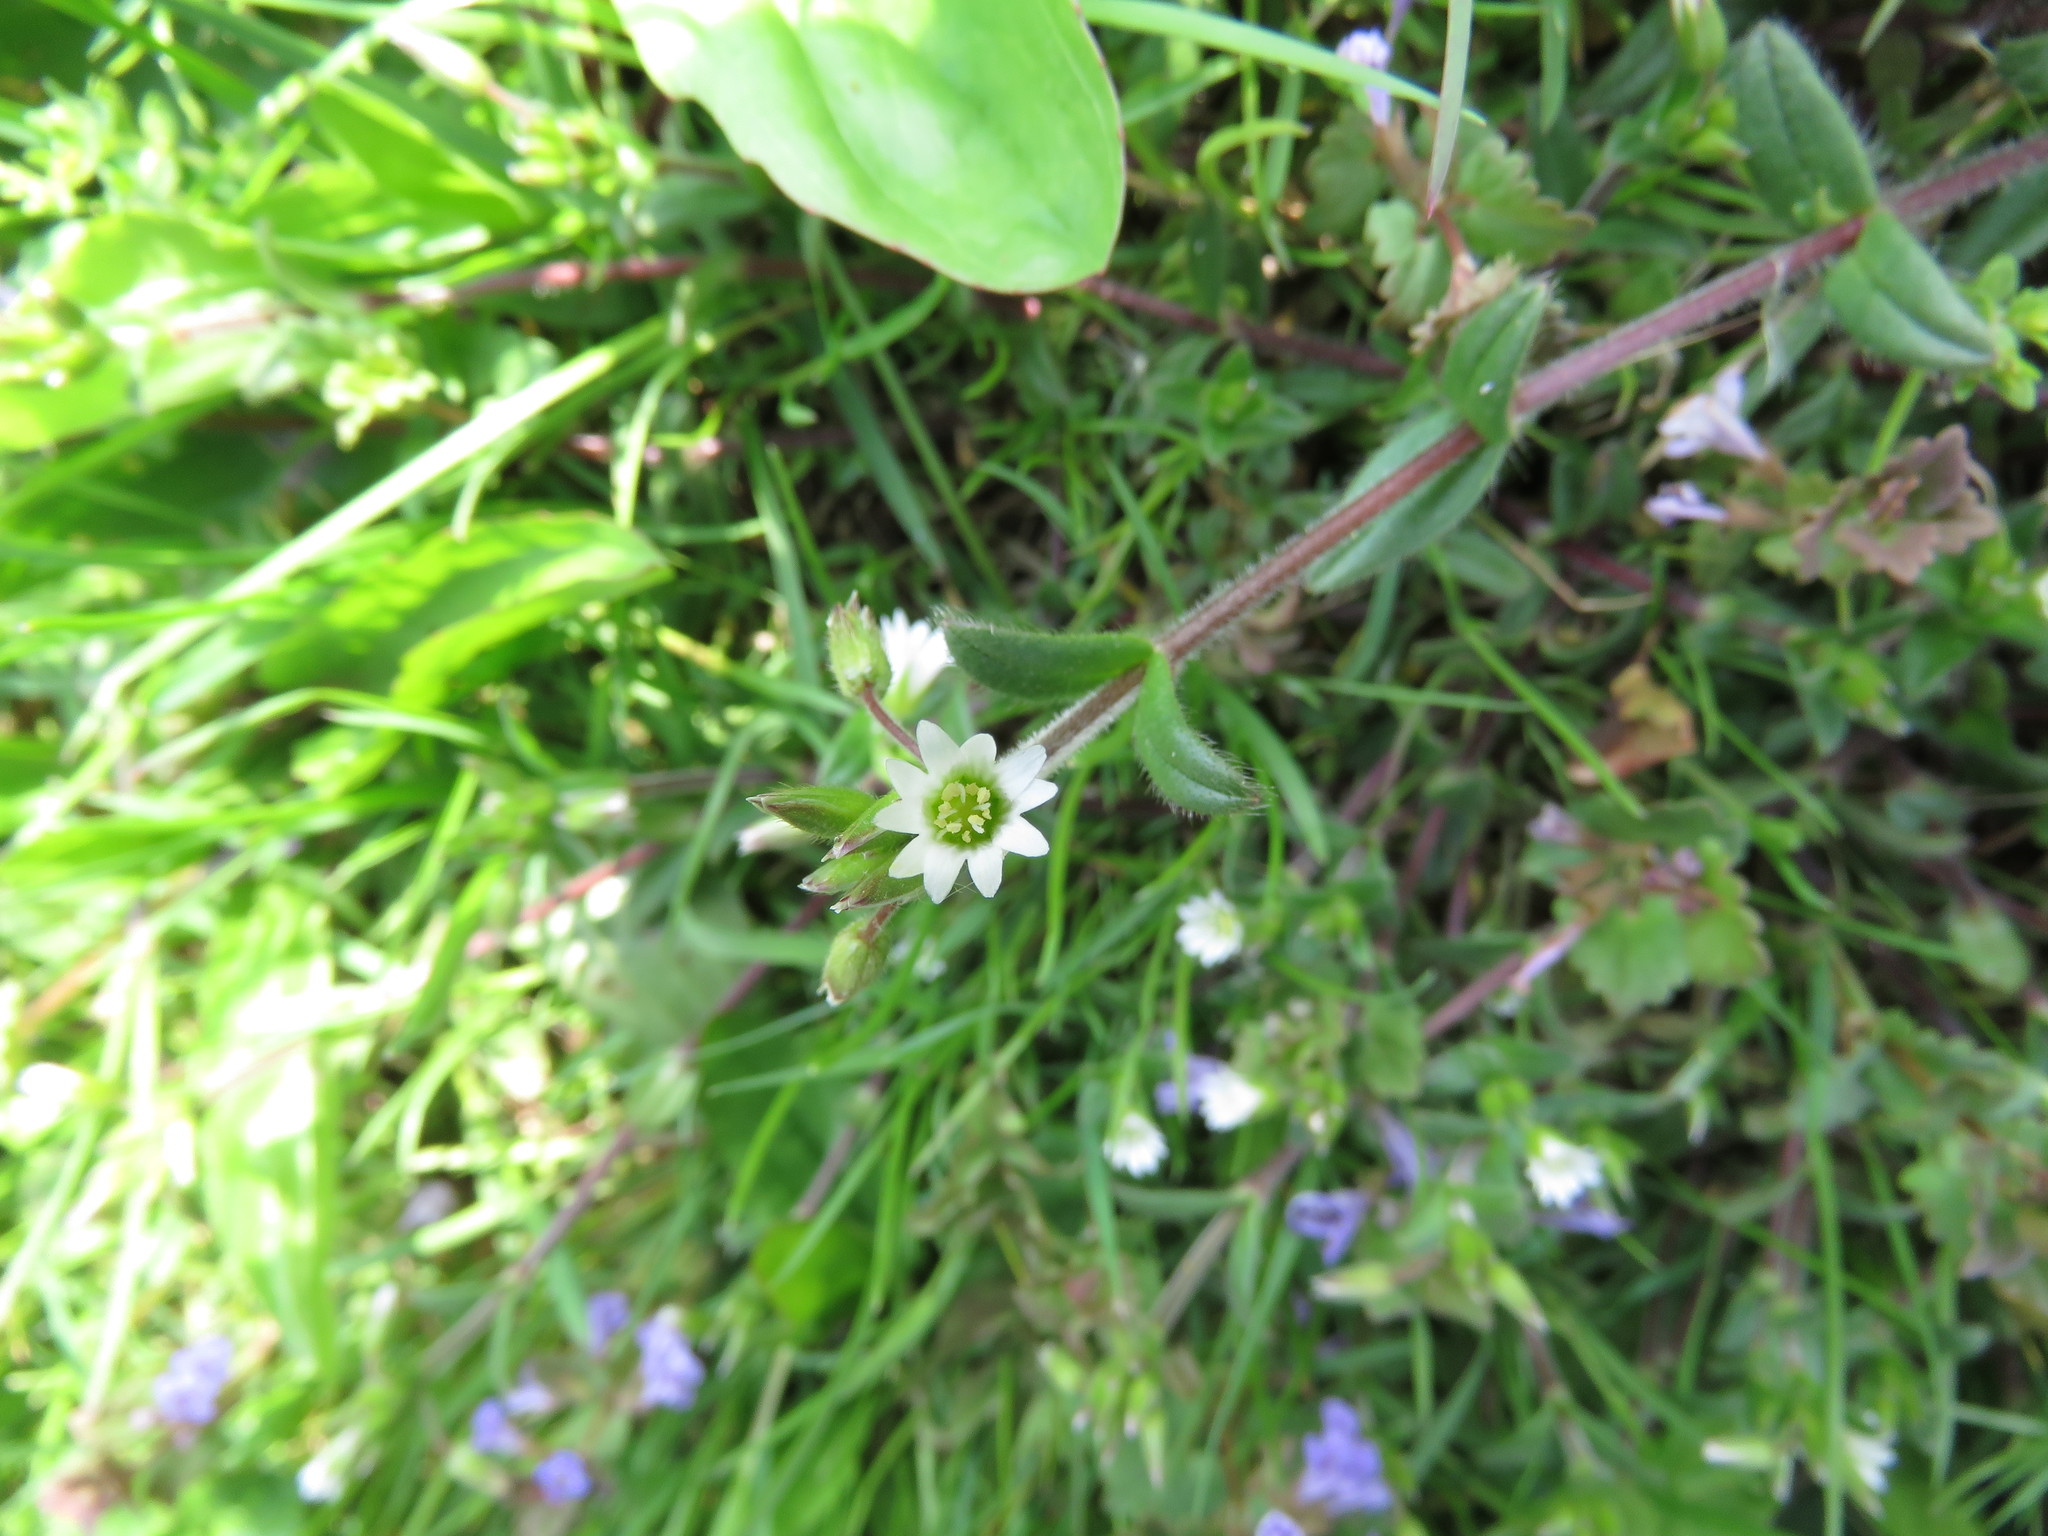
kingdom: Plantae
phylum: Tracheophyta
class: Magnoliopsida
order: Caryophyllales
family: Caryophyllaceae
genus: Cerastium
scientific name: Cerastium fontanum
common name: Common mouse-ear
